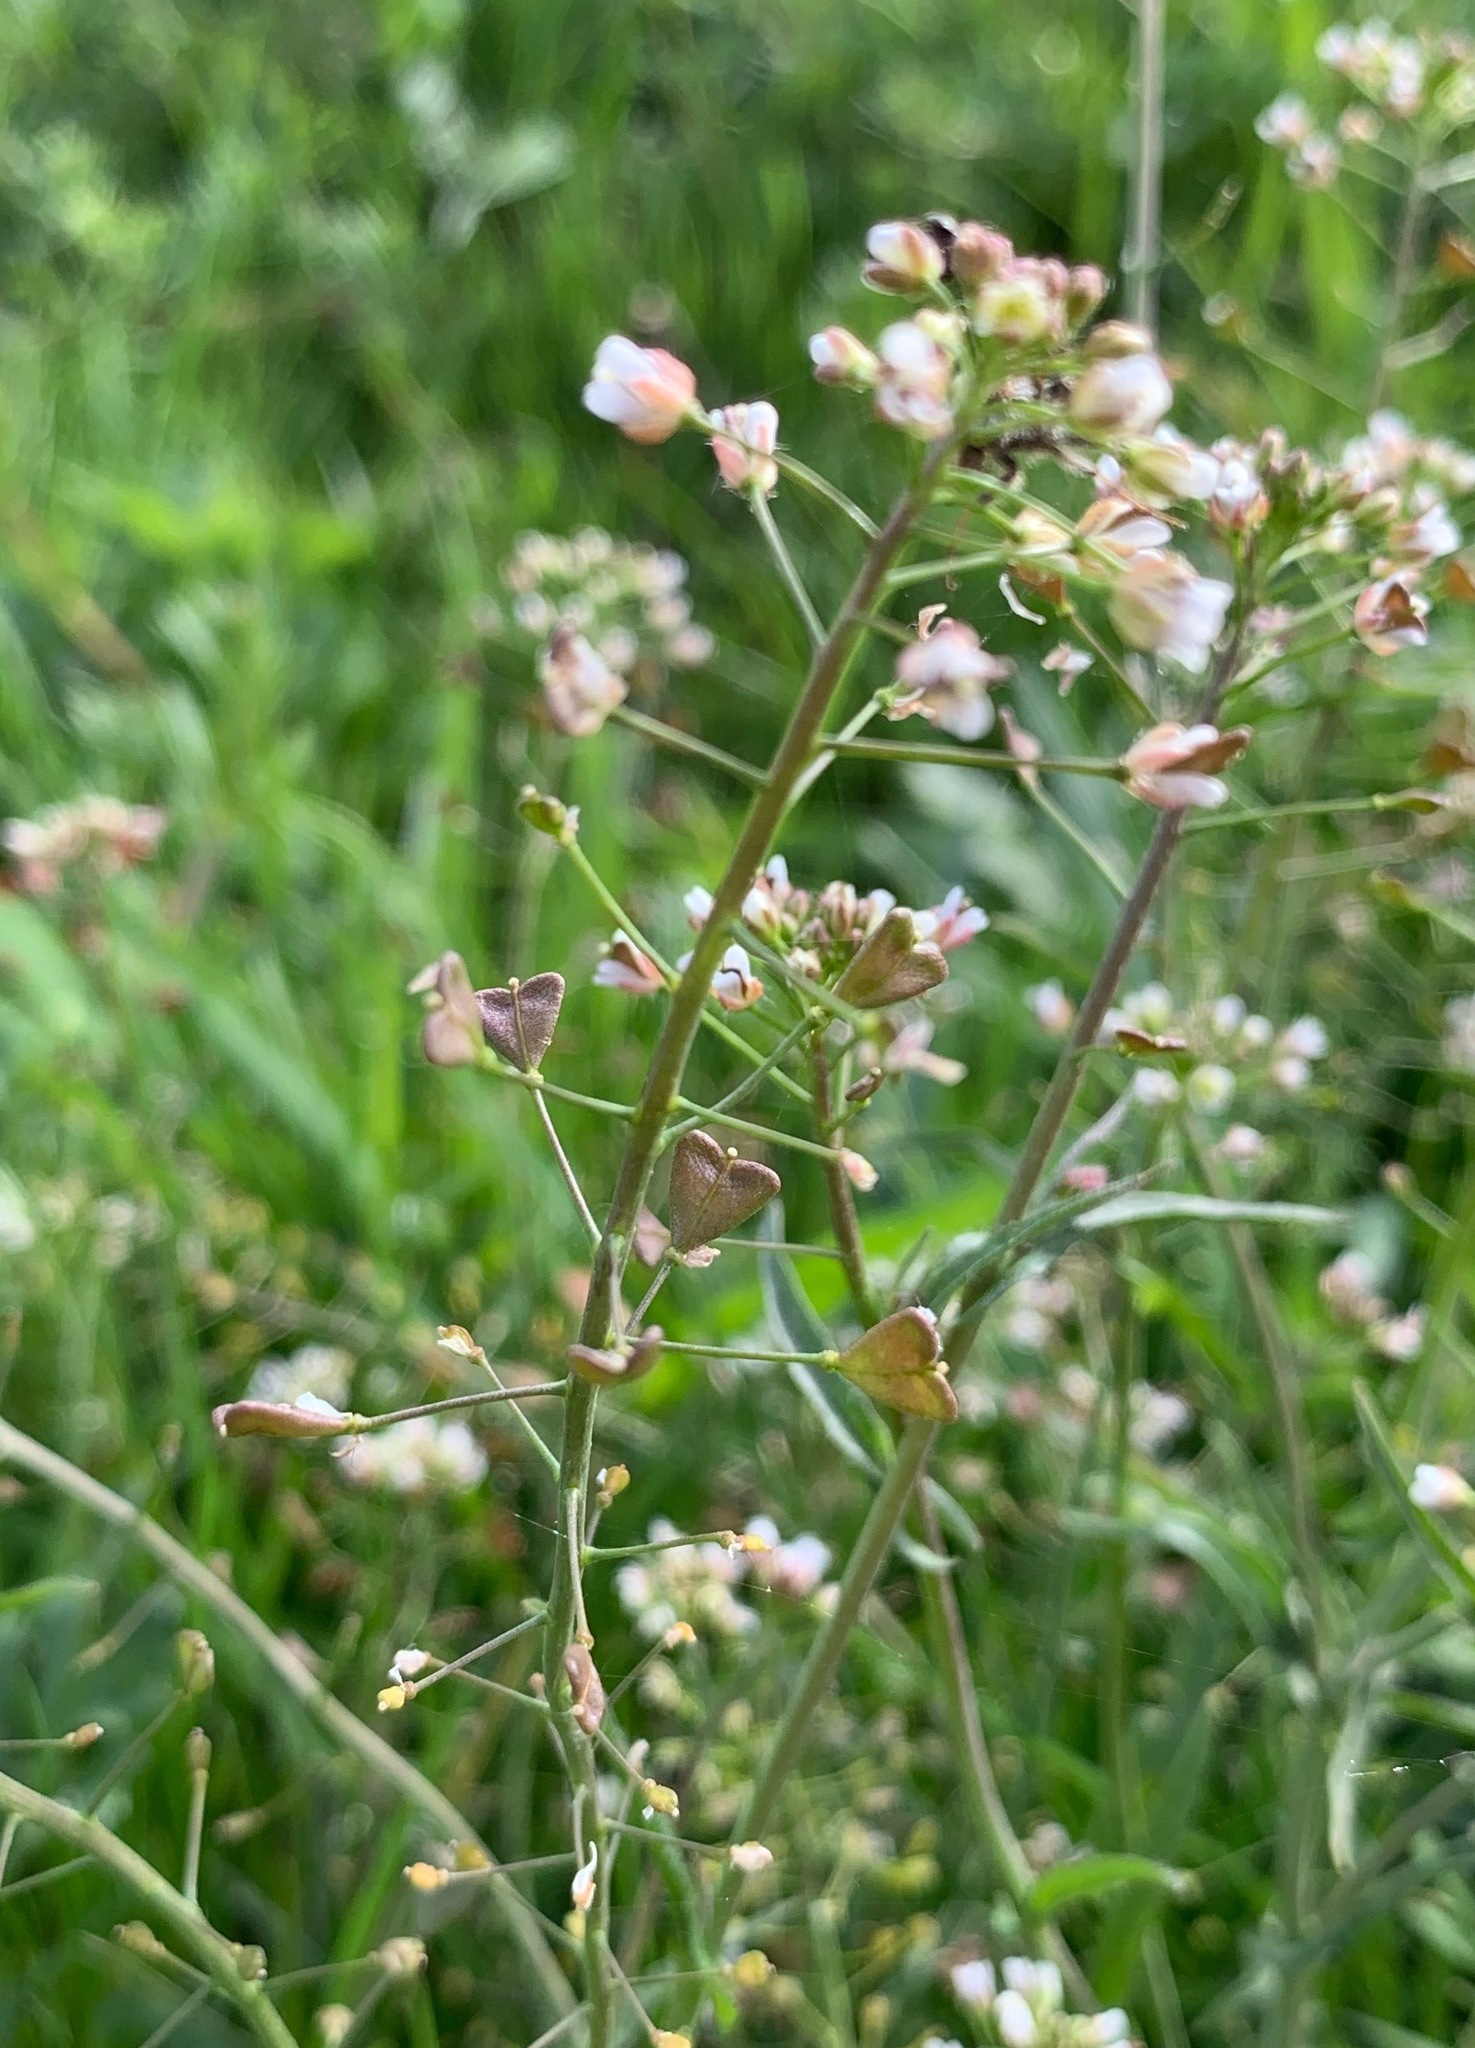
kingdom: Plantae
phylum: Tracheophyta
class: Magnoliopsida
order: Brassicales
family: Brassicaceae
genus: Capsella
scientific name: Capsella bursa-pastoris
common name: Shepherd's purse
